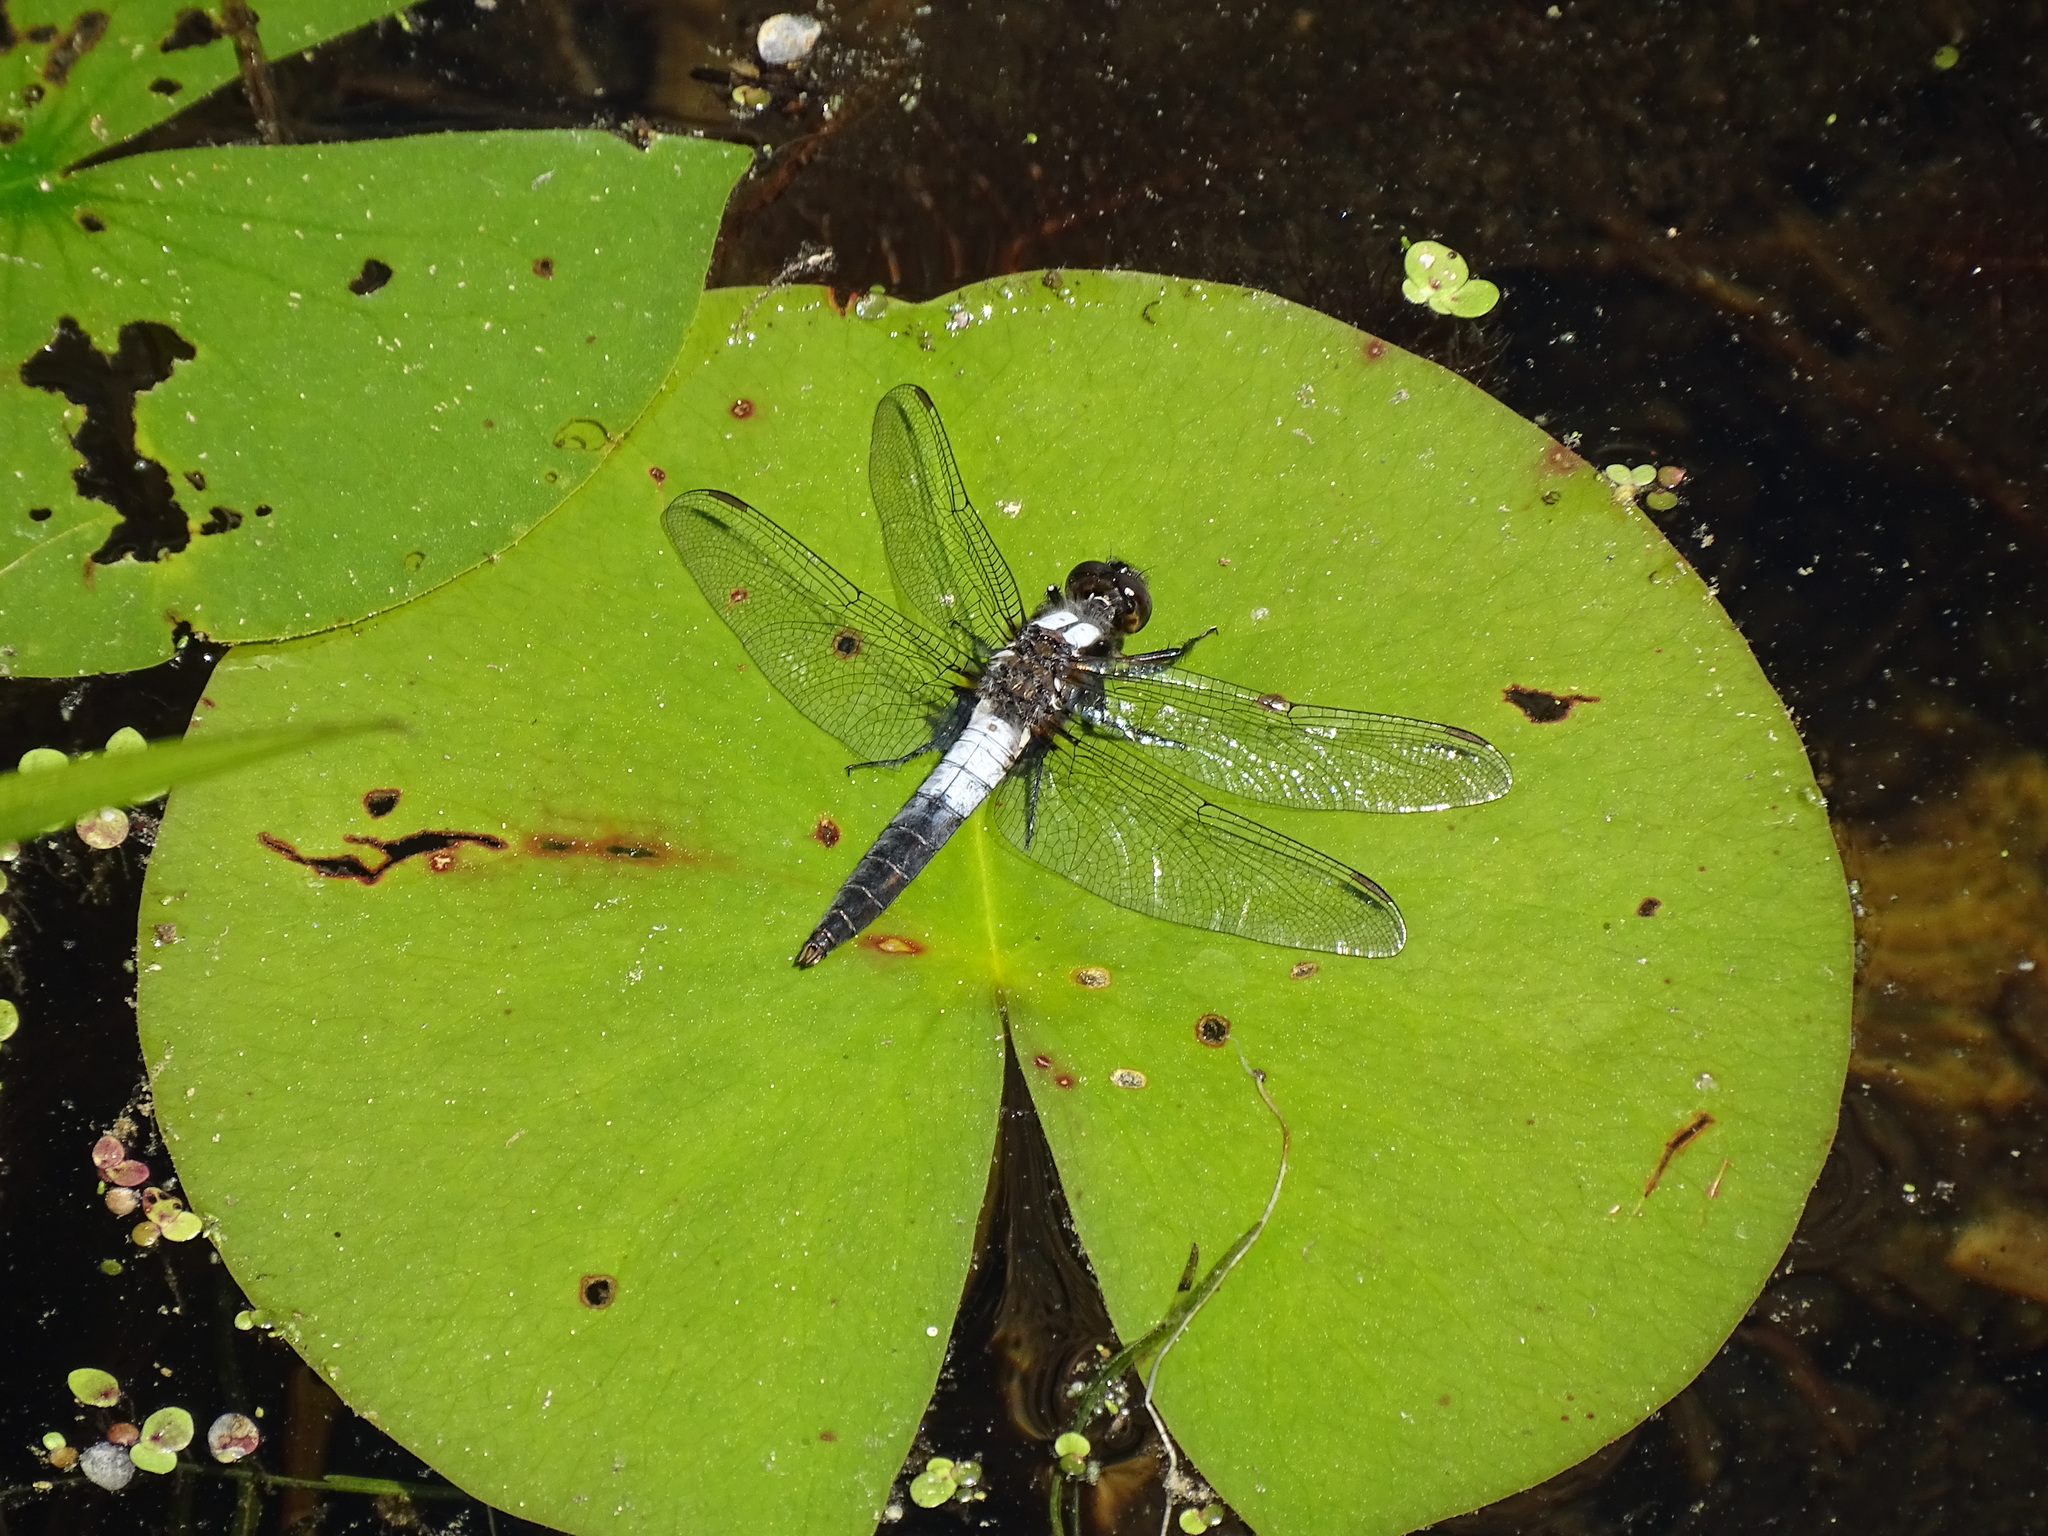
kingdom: Animalia
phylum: Arthropoda
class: Insecta
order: Odonata
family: Libellulidae
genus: Ladona
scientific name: Ladona julia
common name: Chalk-fronted corporal
